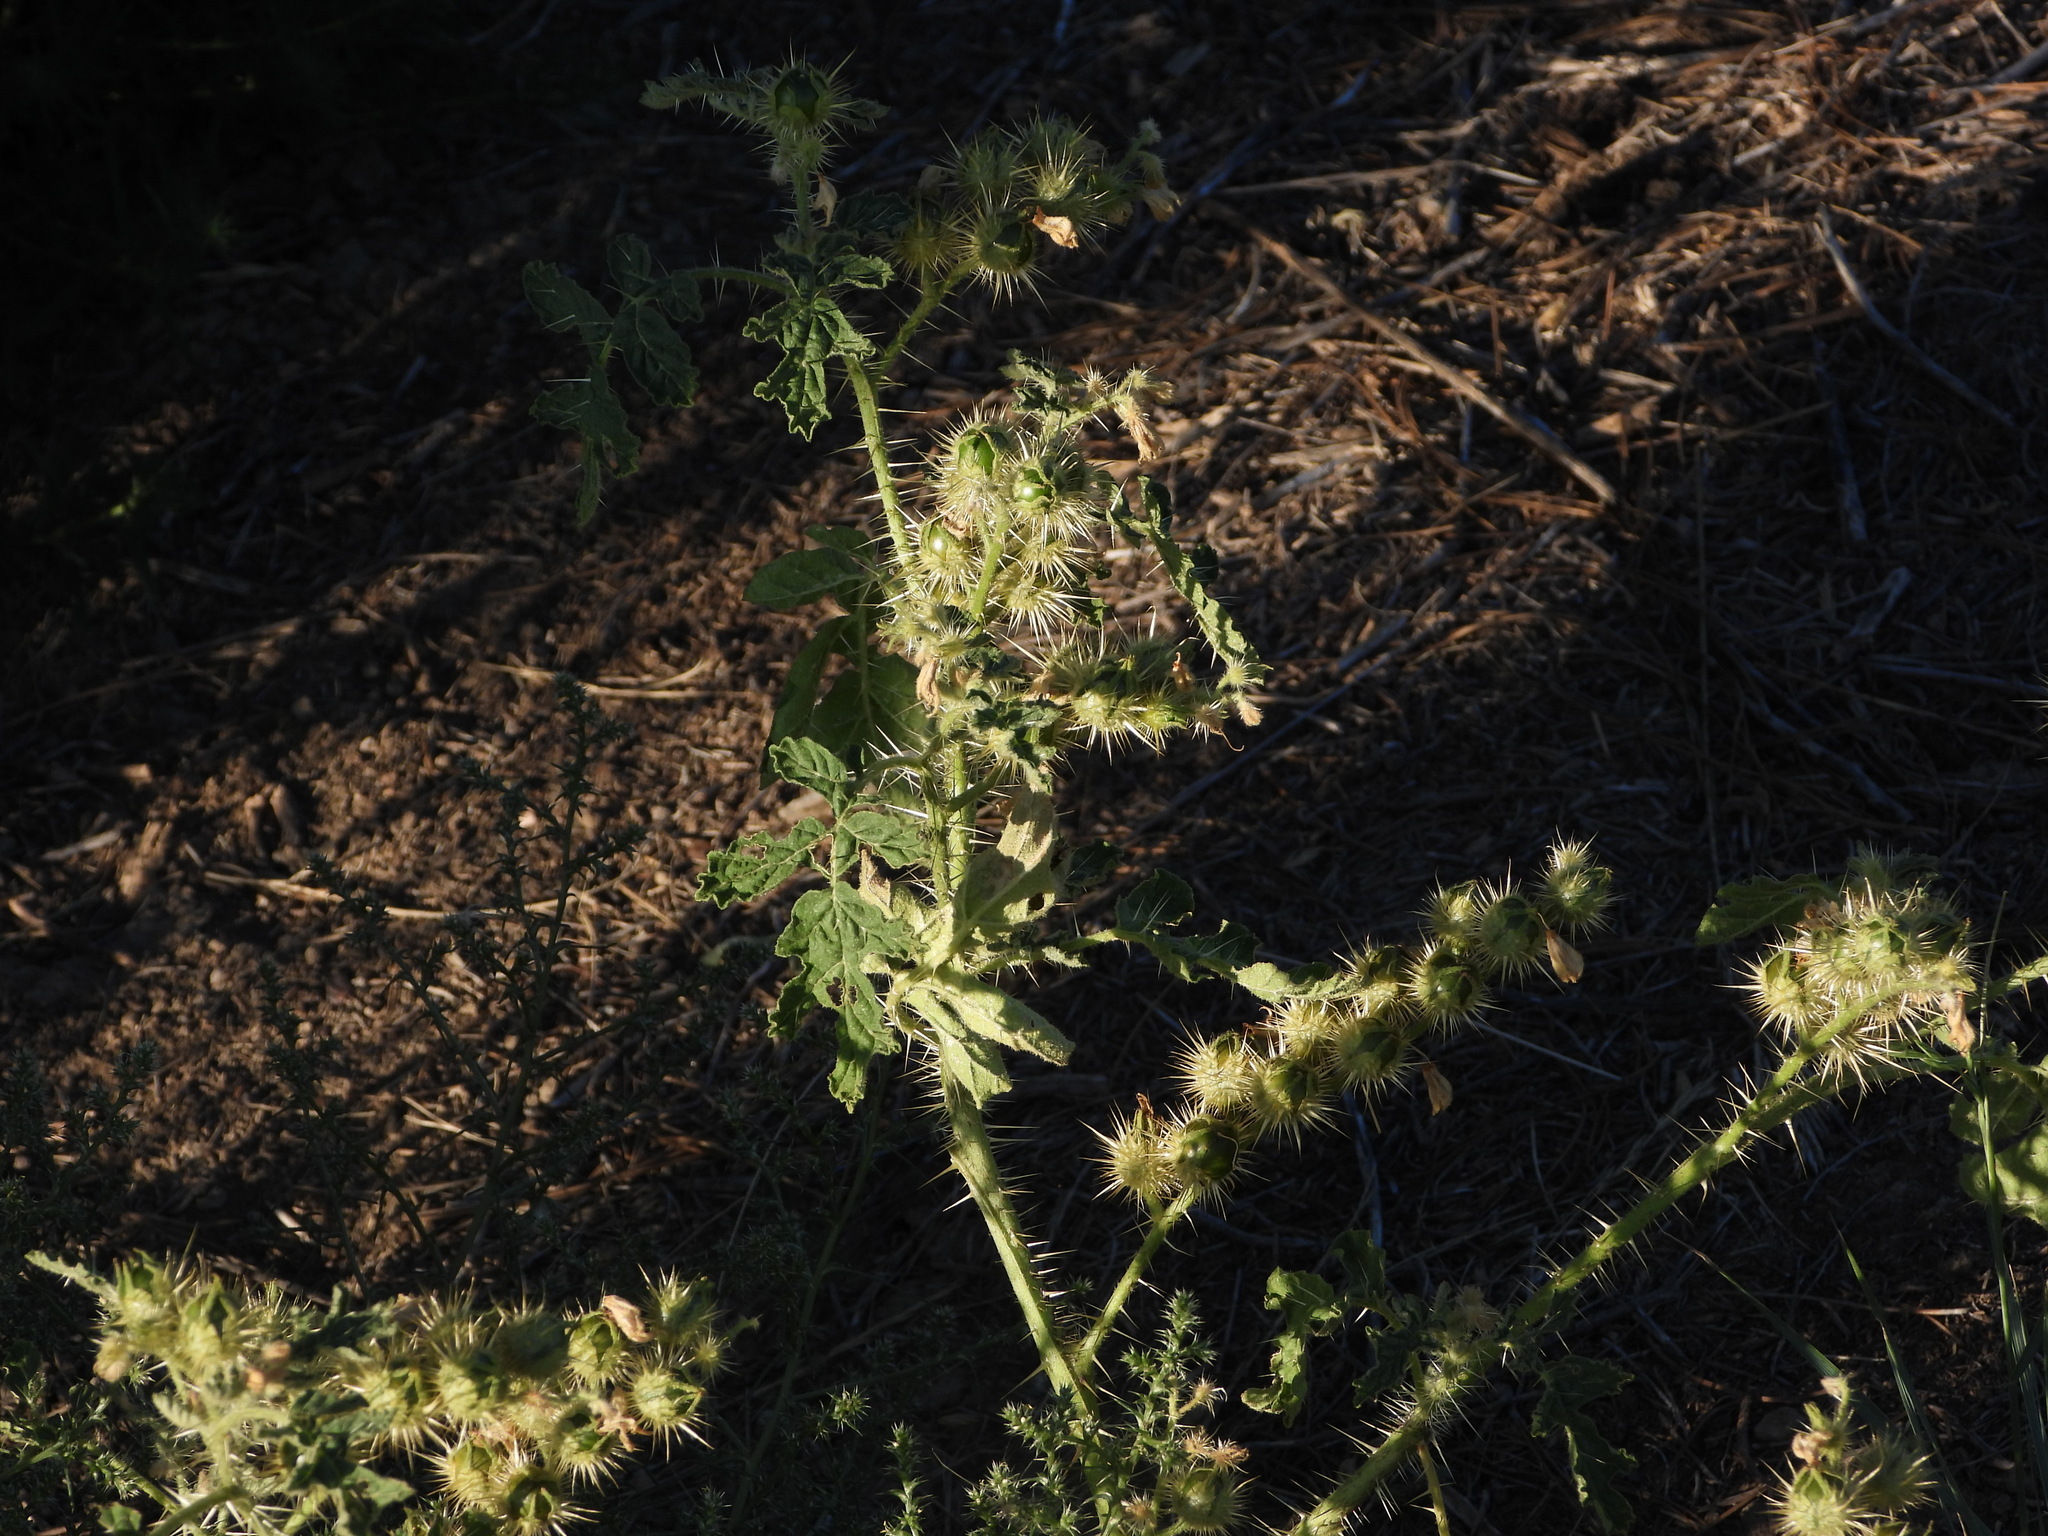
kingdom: Plantae
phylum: Tracheophyta
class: Magnoliopsida
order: Solanales
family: Solanaceae
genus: Solanum
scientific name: Solanum angustifolium
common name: Buffalobur nightshade
